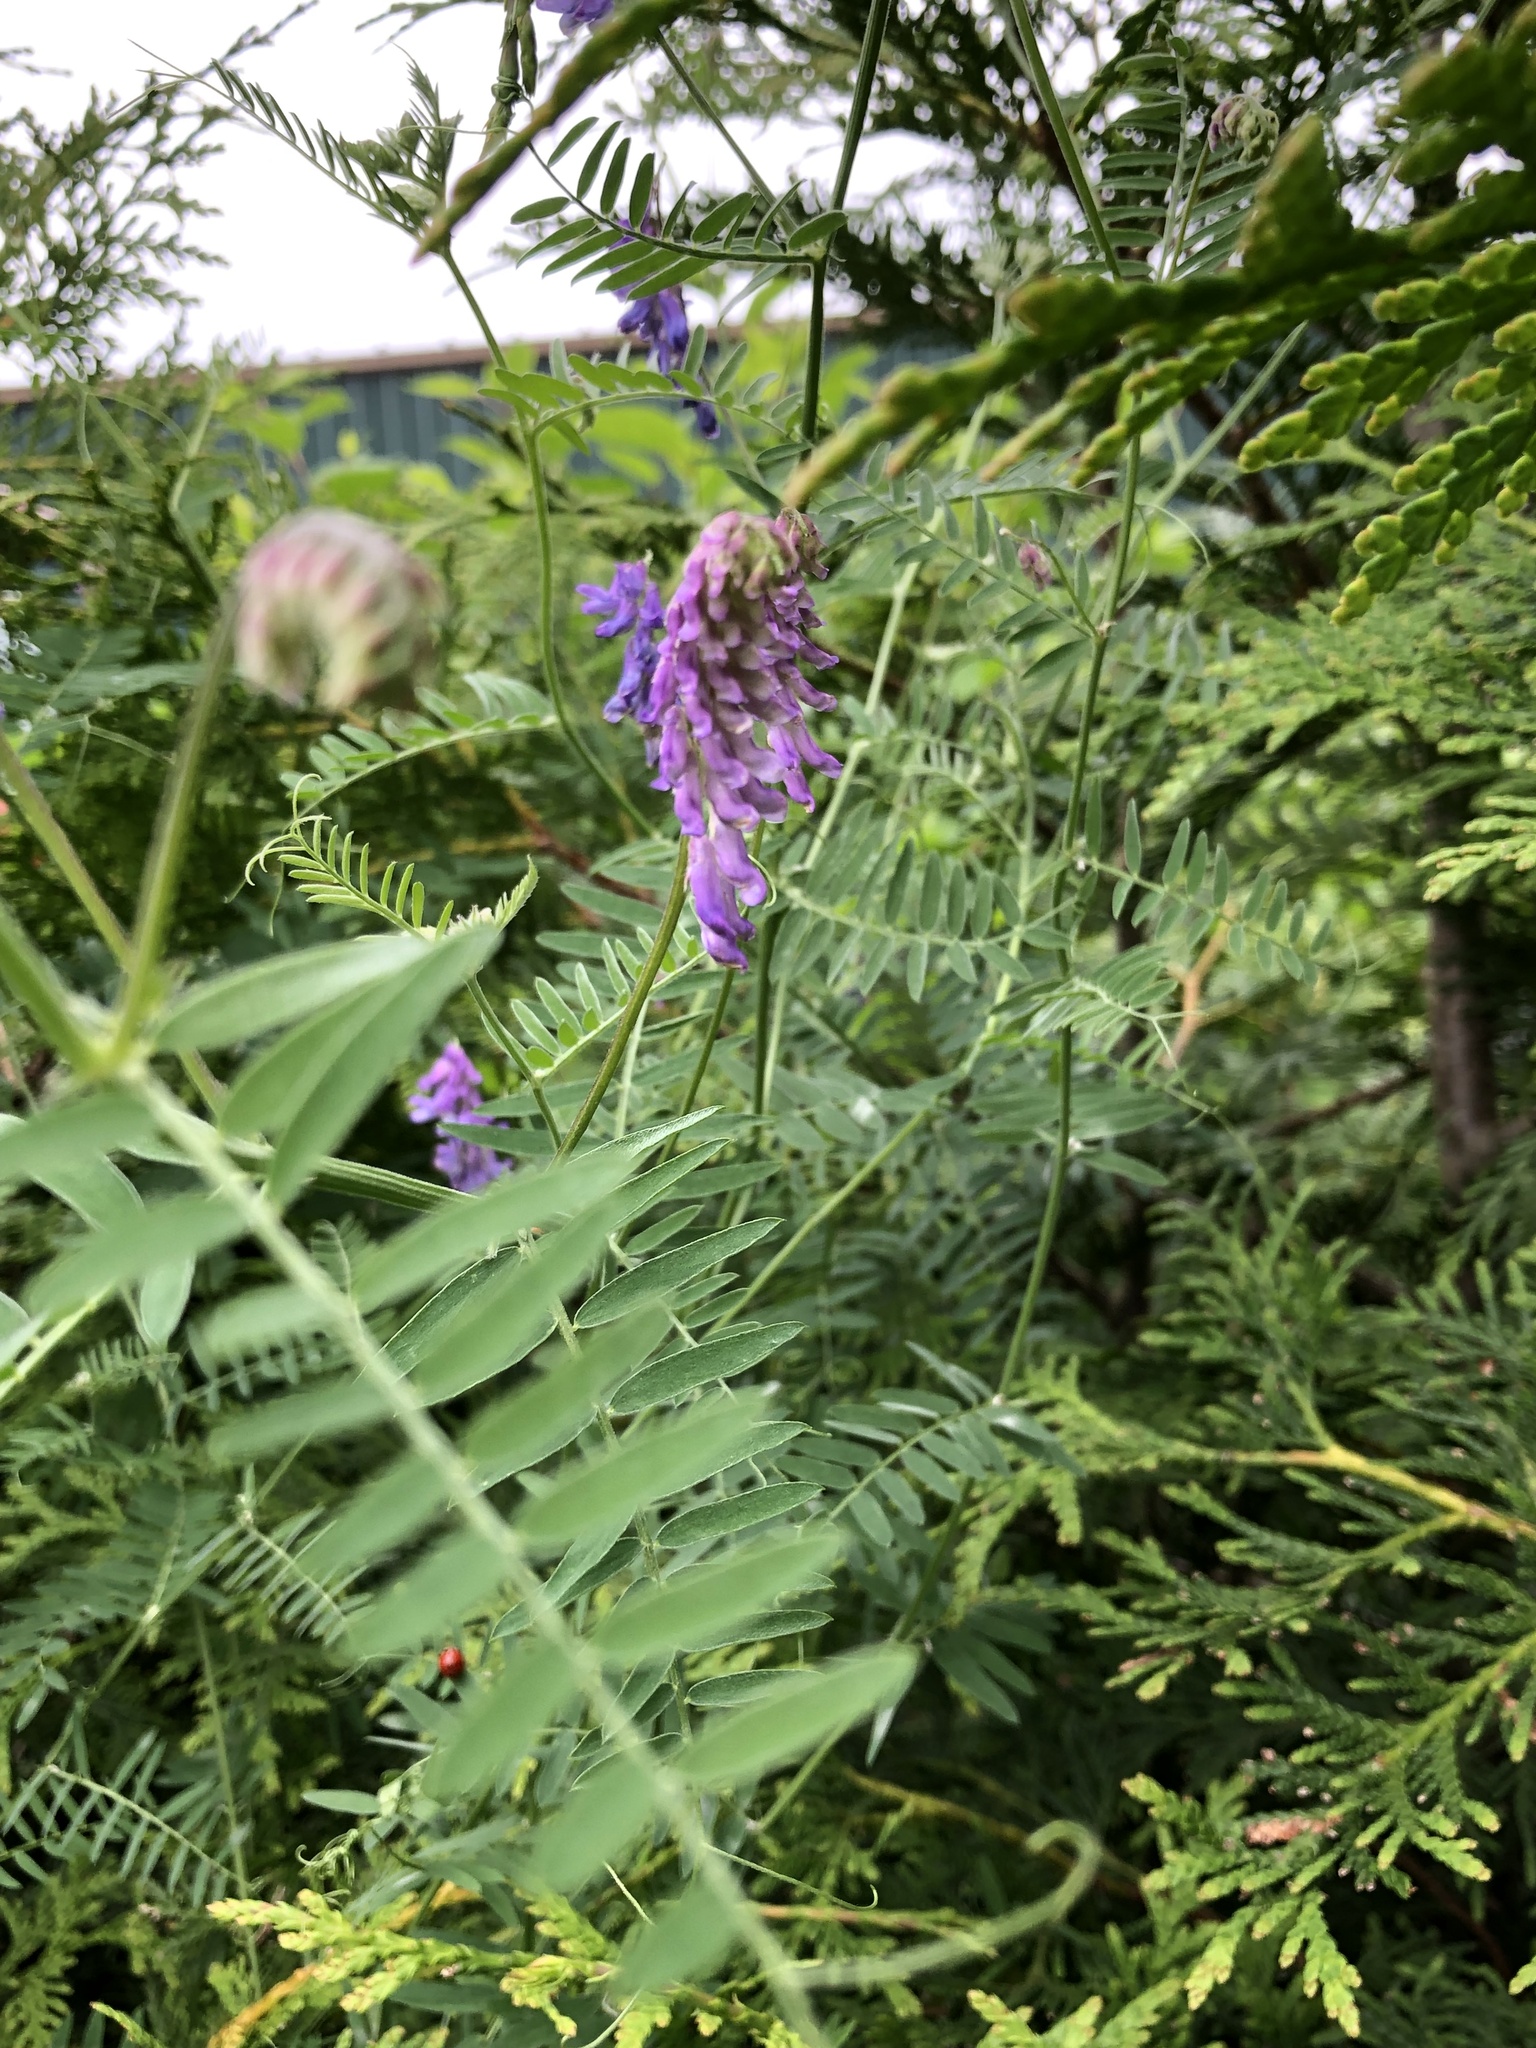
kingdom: Plantae
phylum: Tracheophyta
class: Magnoliopsida
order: Fabales
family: Fabaceae
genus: Vicia
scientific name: Vicia cracca
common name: Bird vetch
